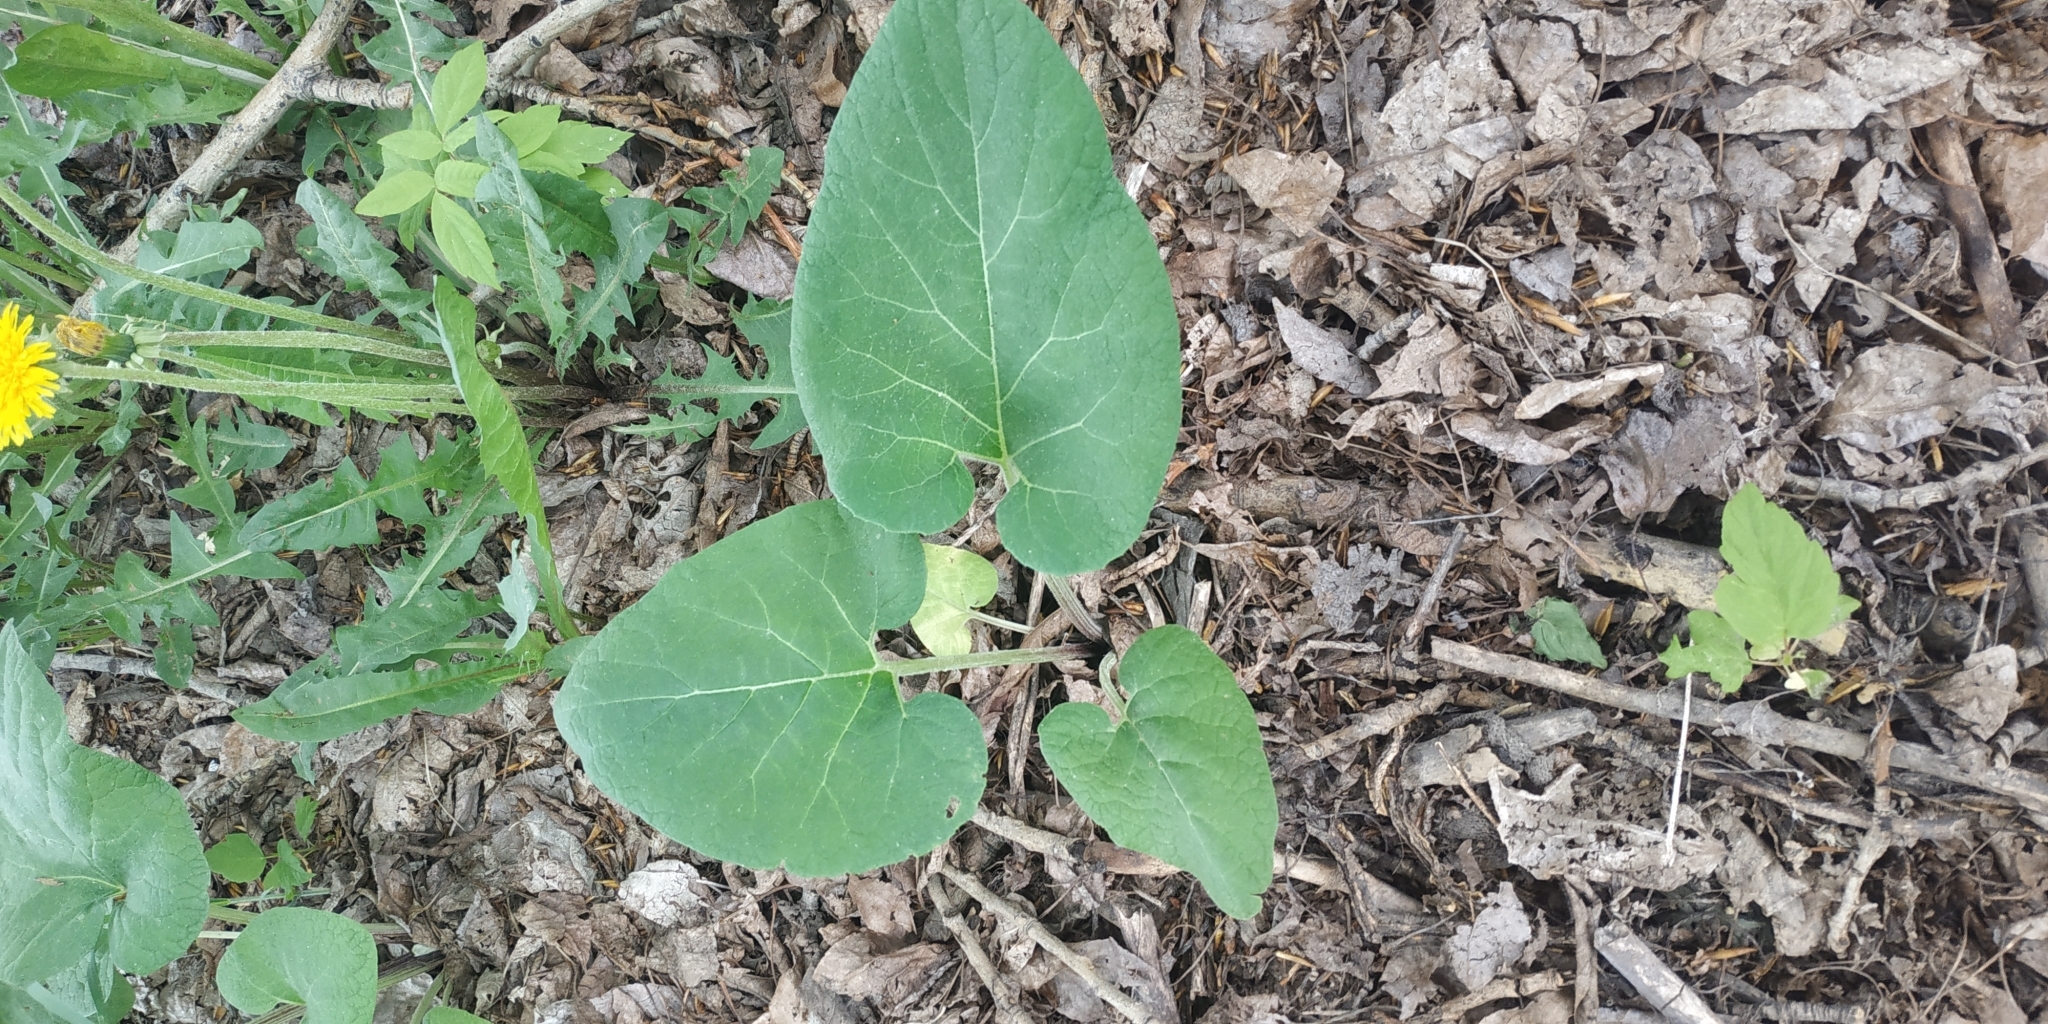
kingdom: Plantae
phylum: Tracheophyta
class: Magnoliopsida
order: Asterales
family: Asteraceae
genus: Arctium
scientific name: Arctium tomentosum
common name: Woolly burdock
